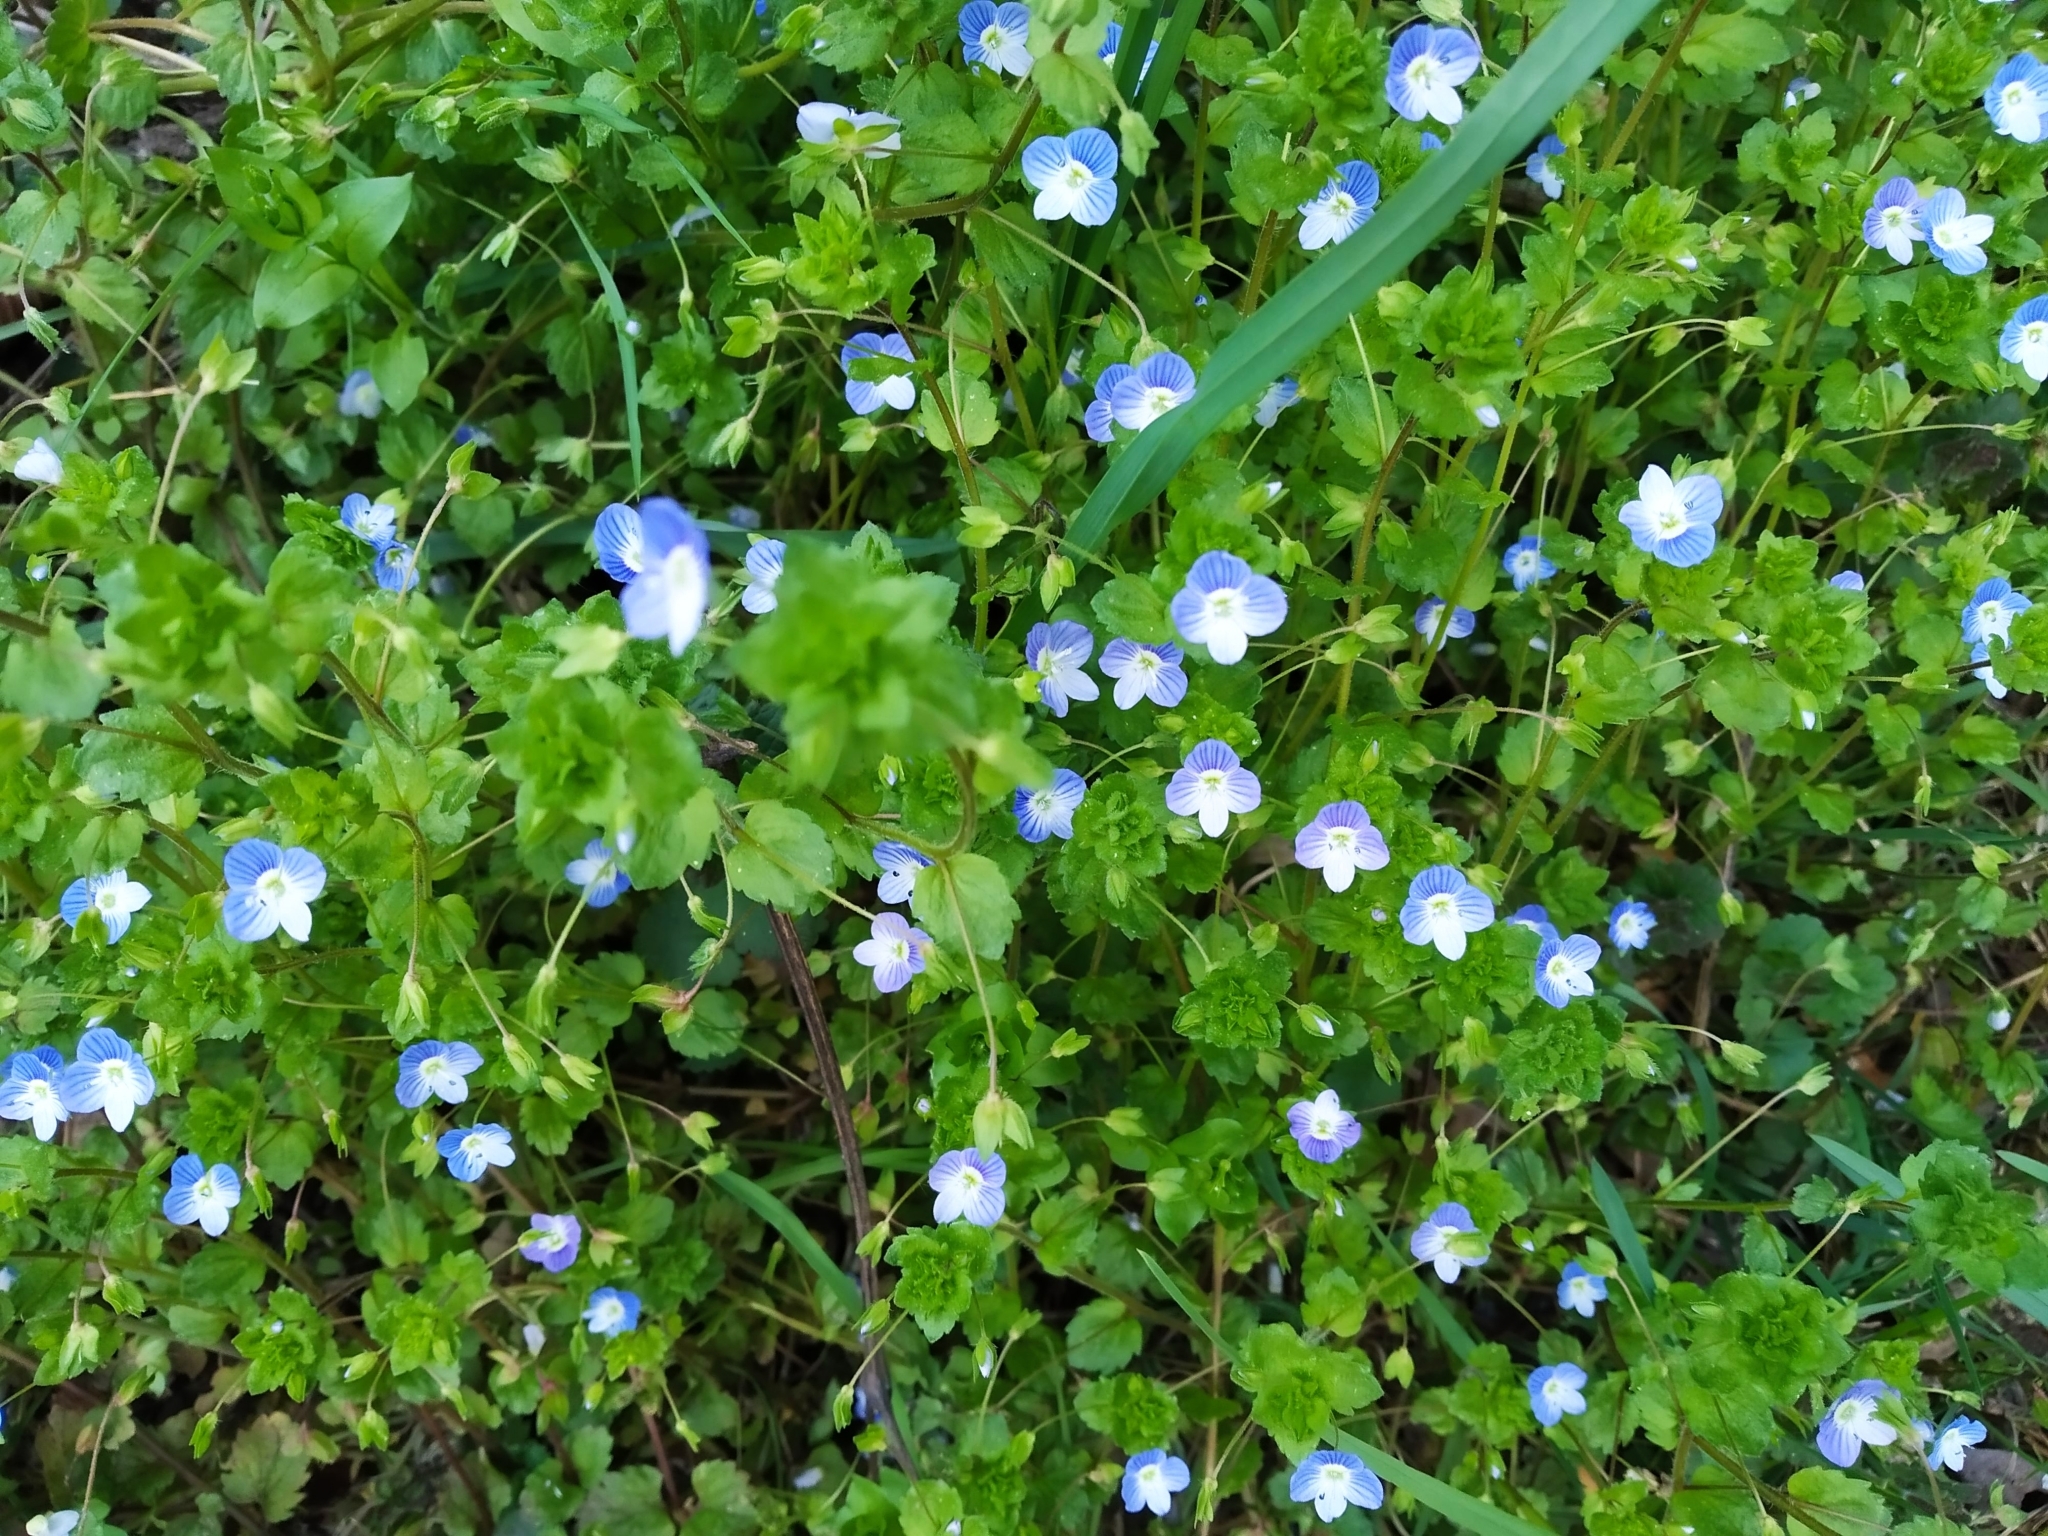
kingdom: Plantae
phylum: Tracheophyta
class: Magnoliopsida
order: Lamiales
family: Plantaginaceae
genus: Veronica
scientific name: Veronica persica
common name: Common field-speedwell
